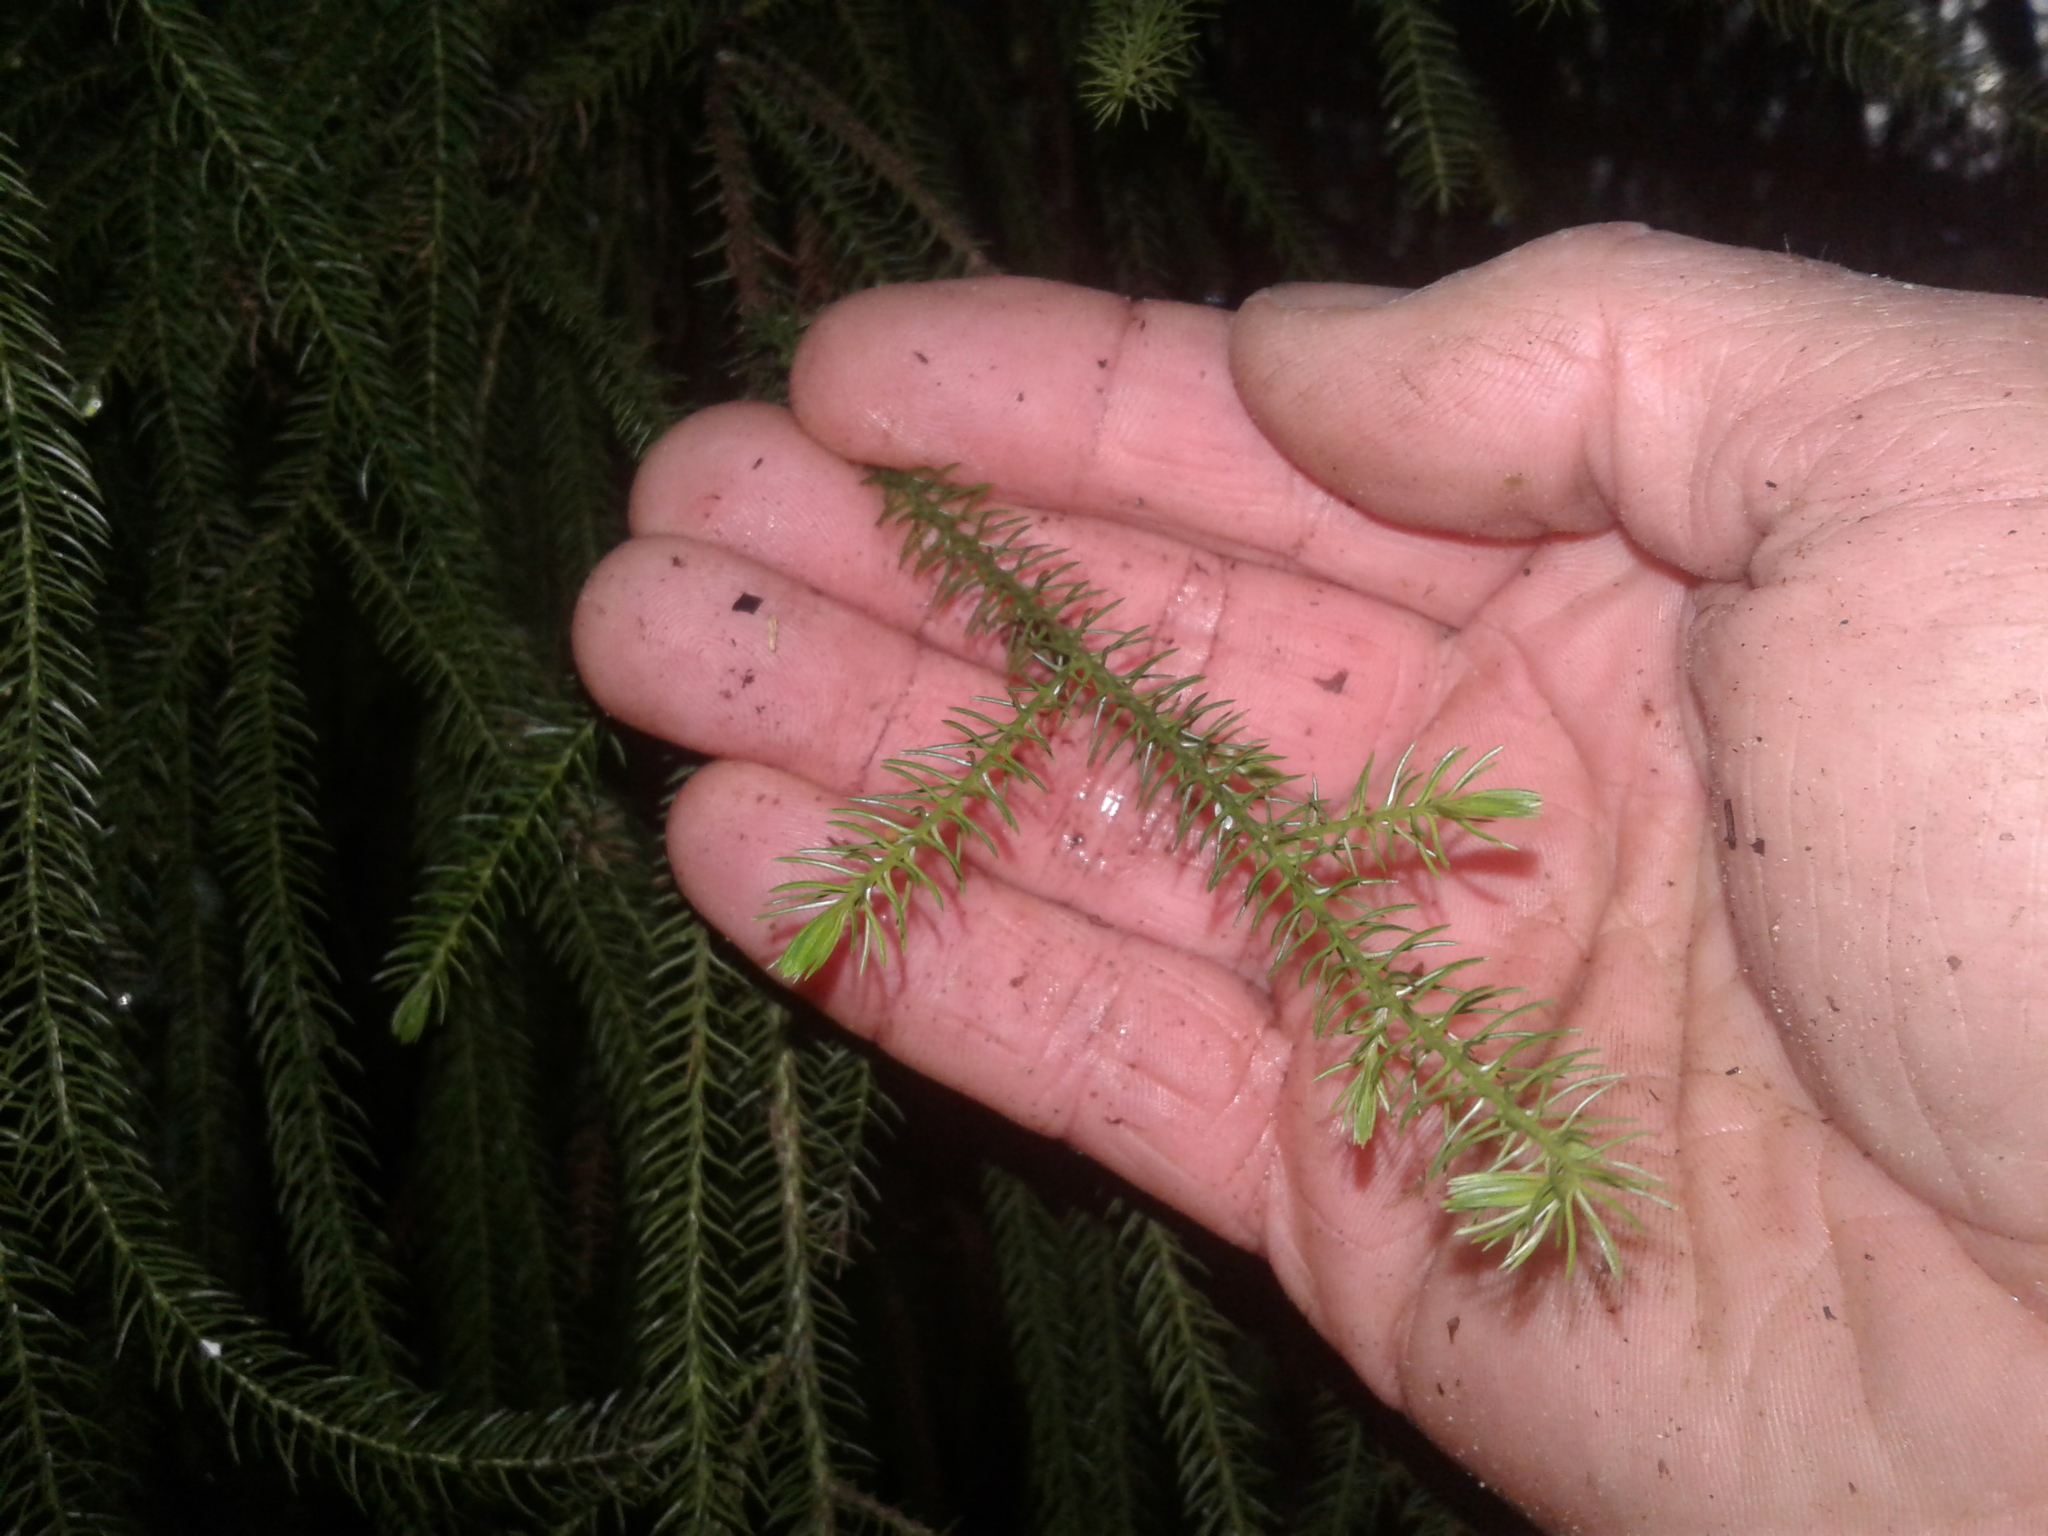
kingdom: Plantae
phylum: Tracheophyta
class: Pinopsida
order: Pinales
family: Podocarpaceae
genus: Dacrydium
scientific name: Dacrydium cupressinum
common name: Red pine
